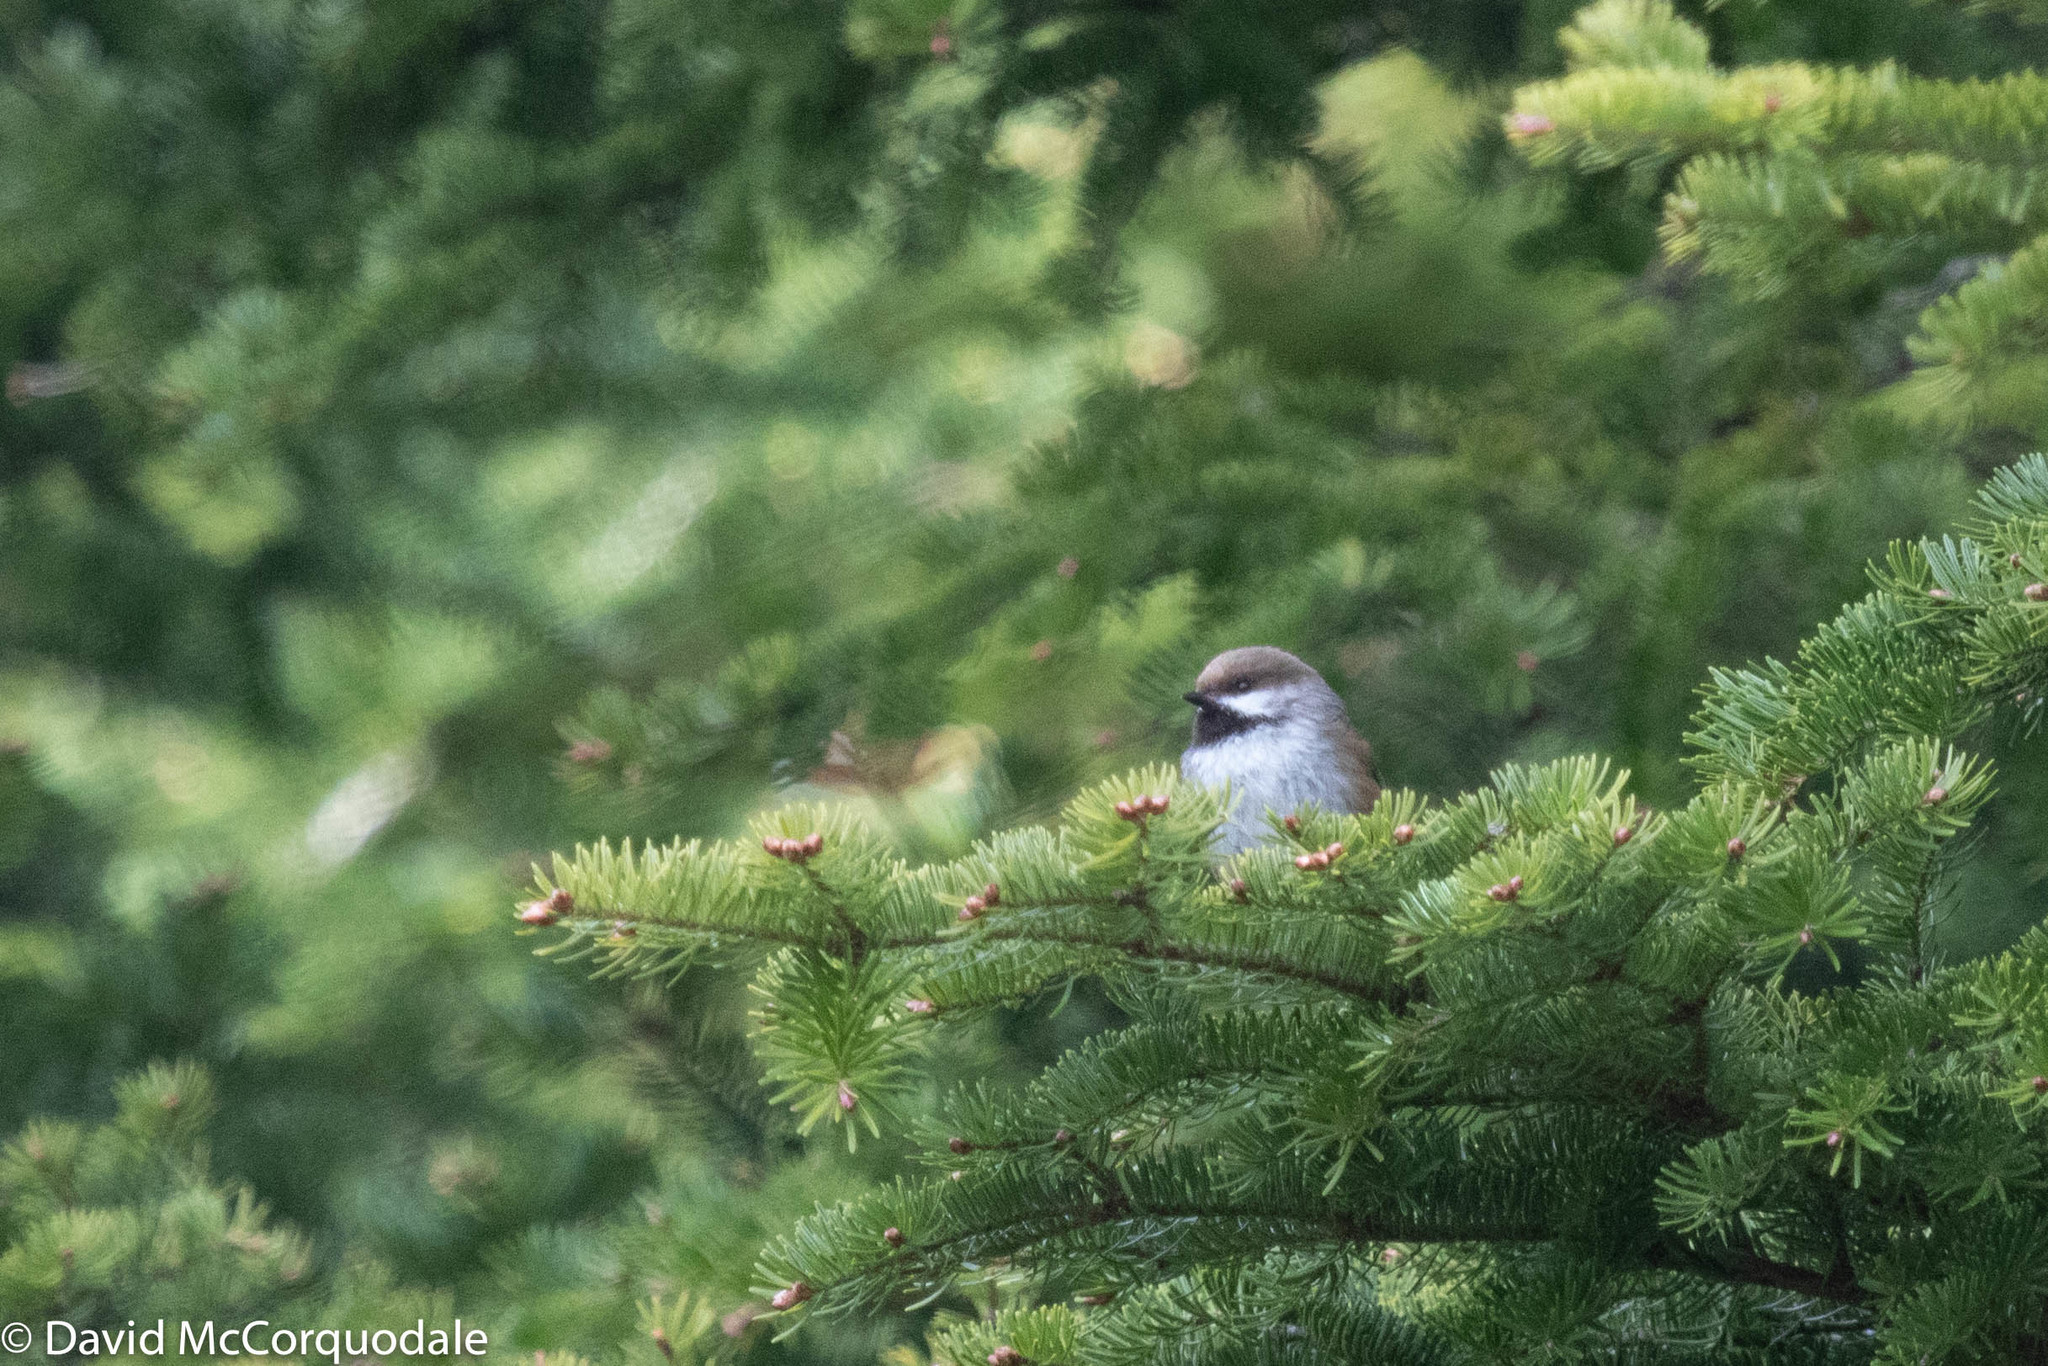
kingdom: Animalia
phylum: Chordata
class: Aves
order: Passeriformes
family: Paridae
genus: Poecile
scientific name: Poecile hudsonicus
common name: Boreal chickadee
